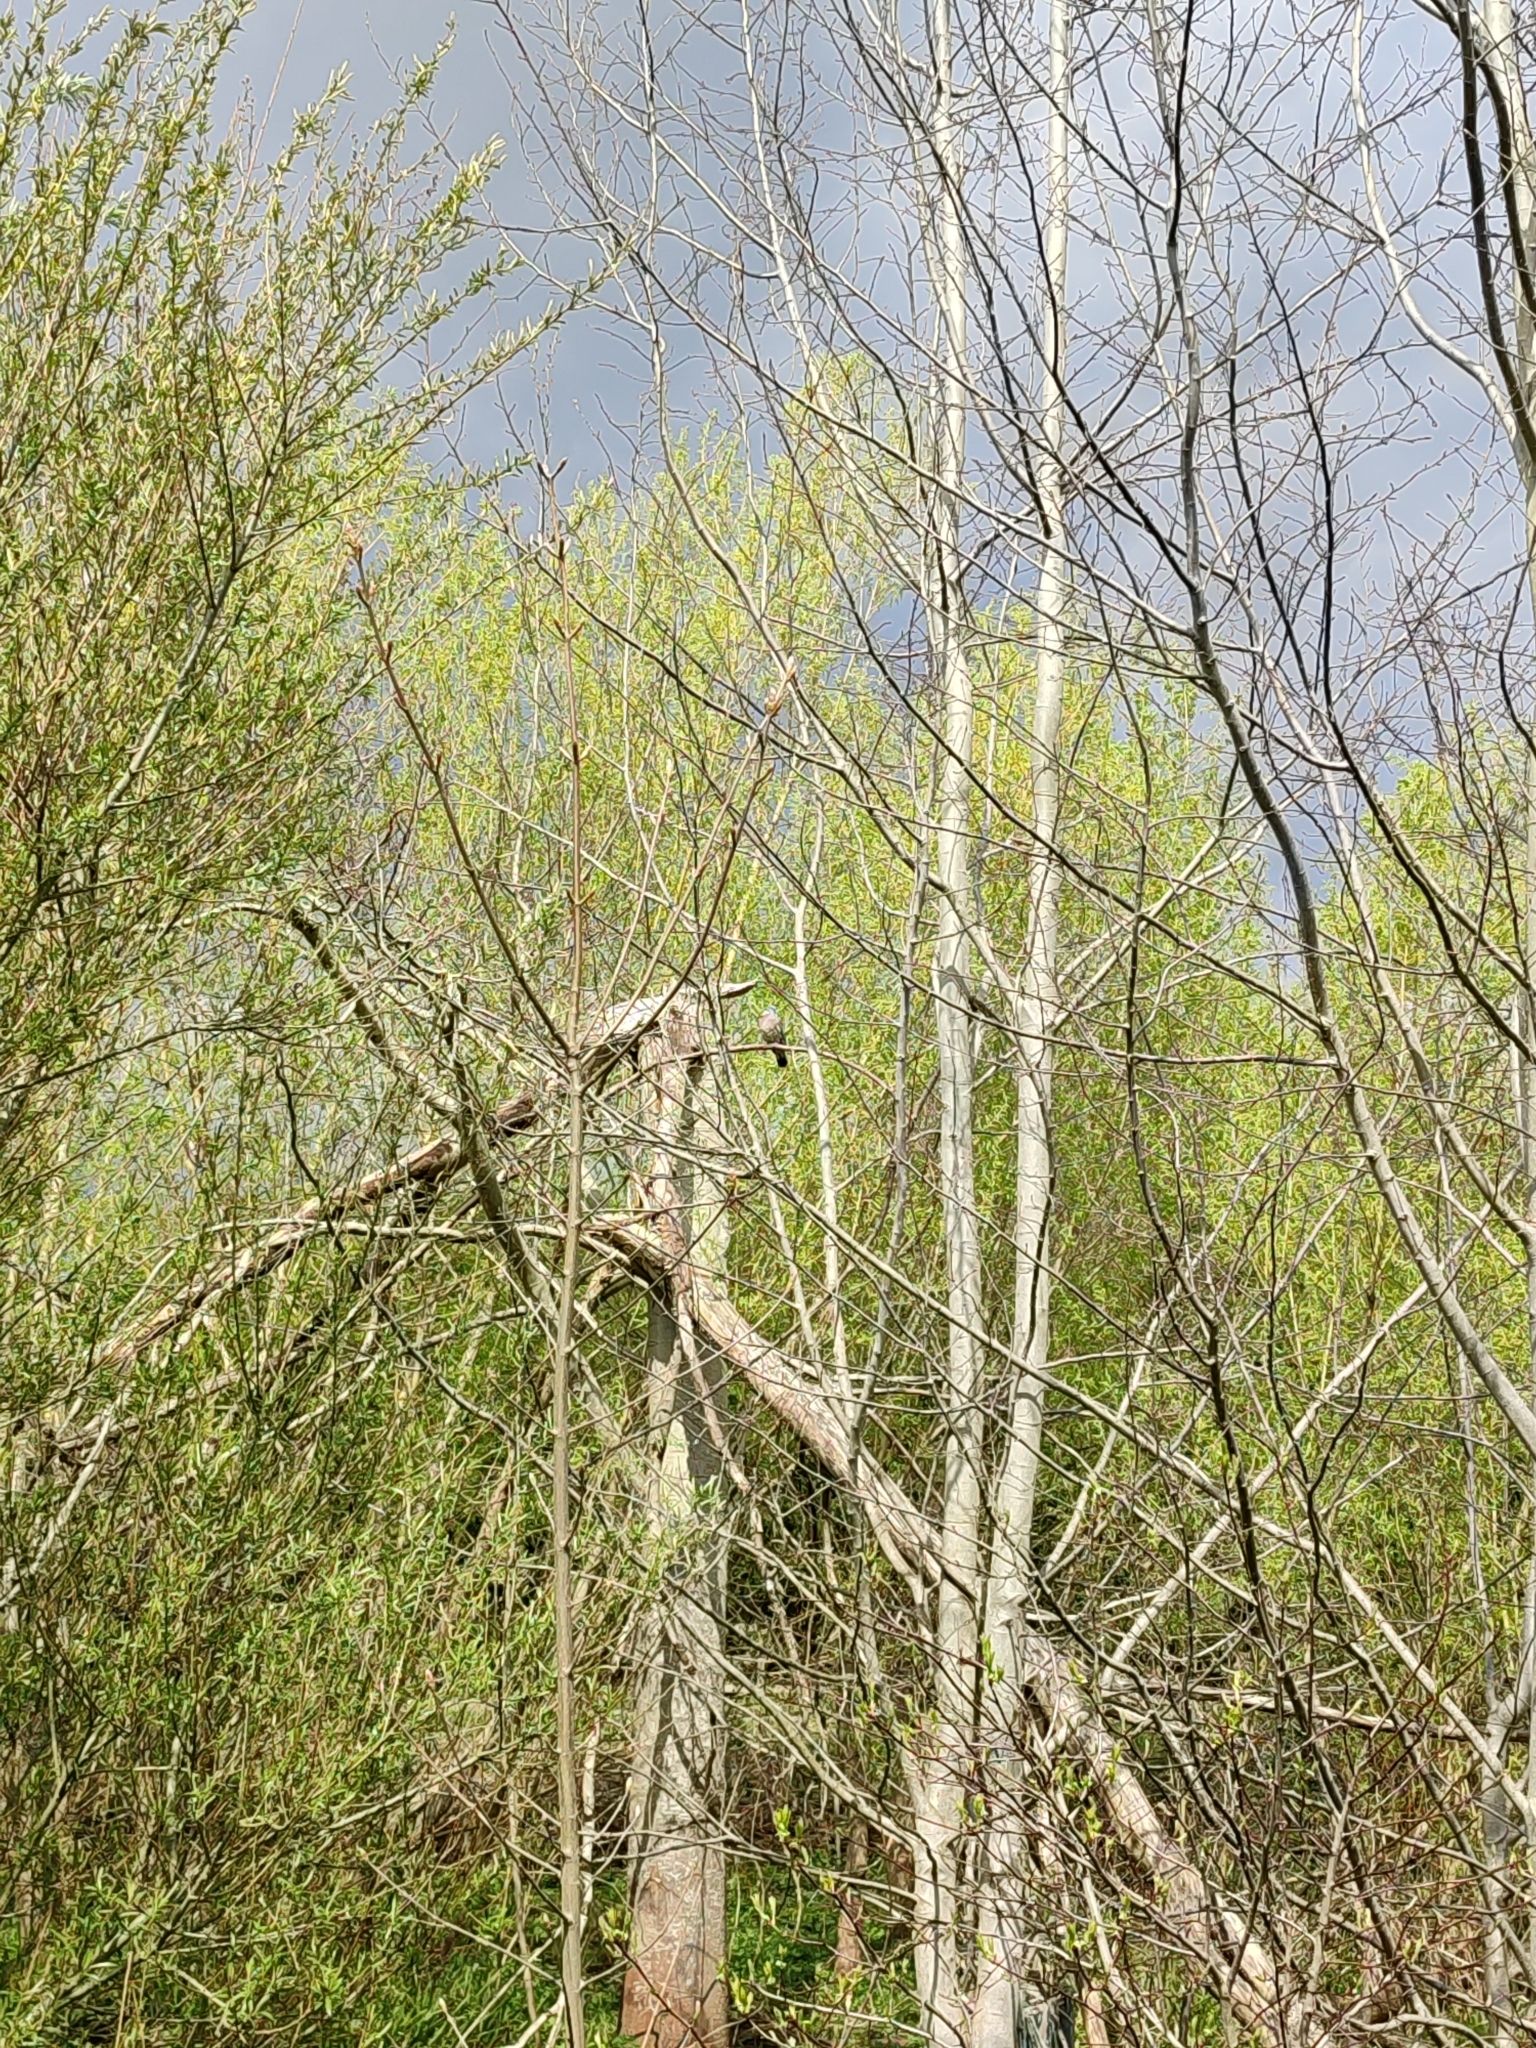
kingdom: Animalia
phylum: Chordata
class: Aves
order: Columbiformes
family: Columbidae
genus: Columba
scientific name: Columba palumbus
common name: Common wood pigeon
